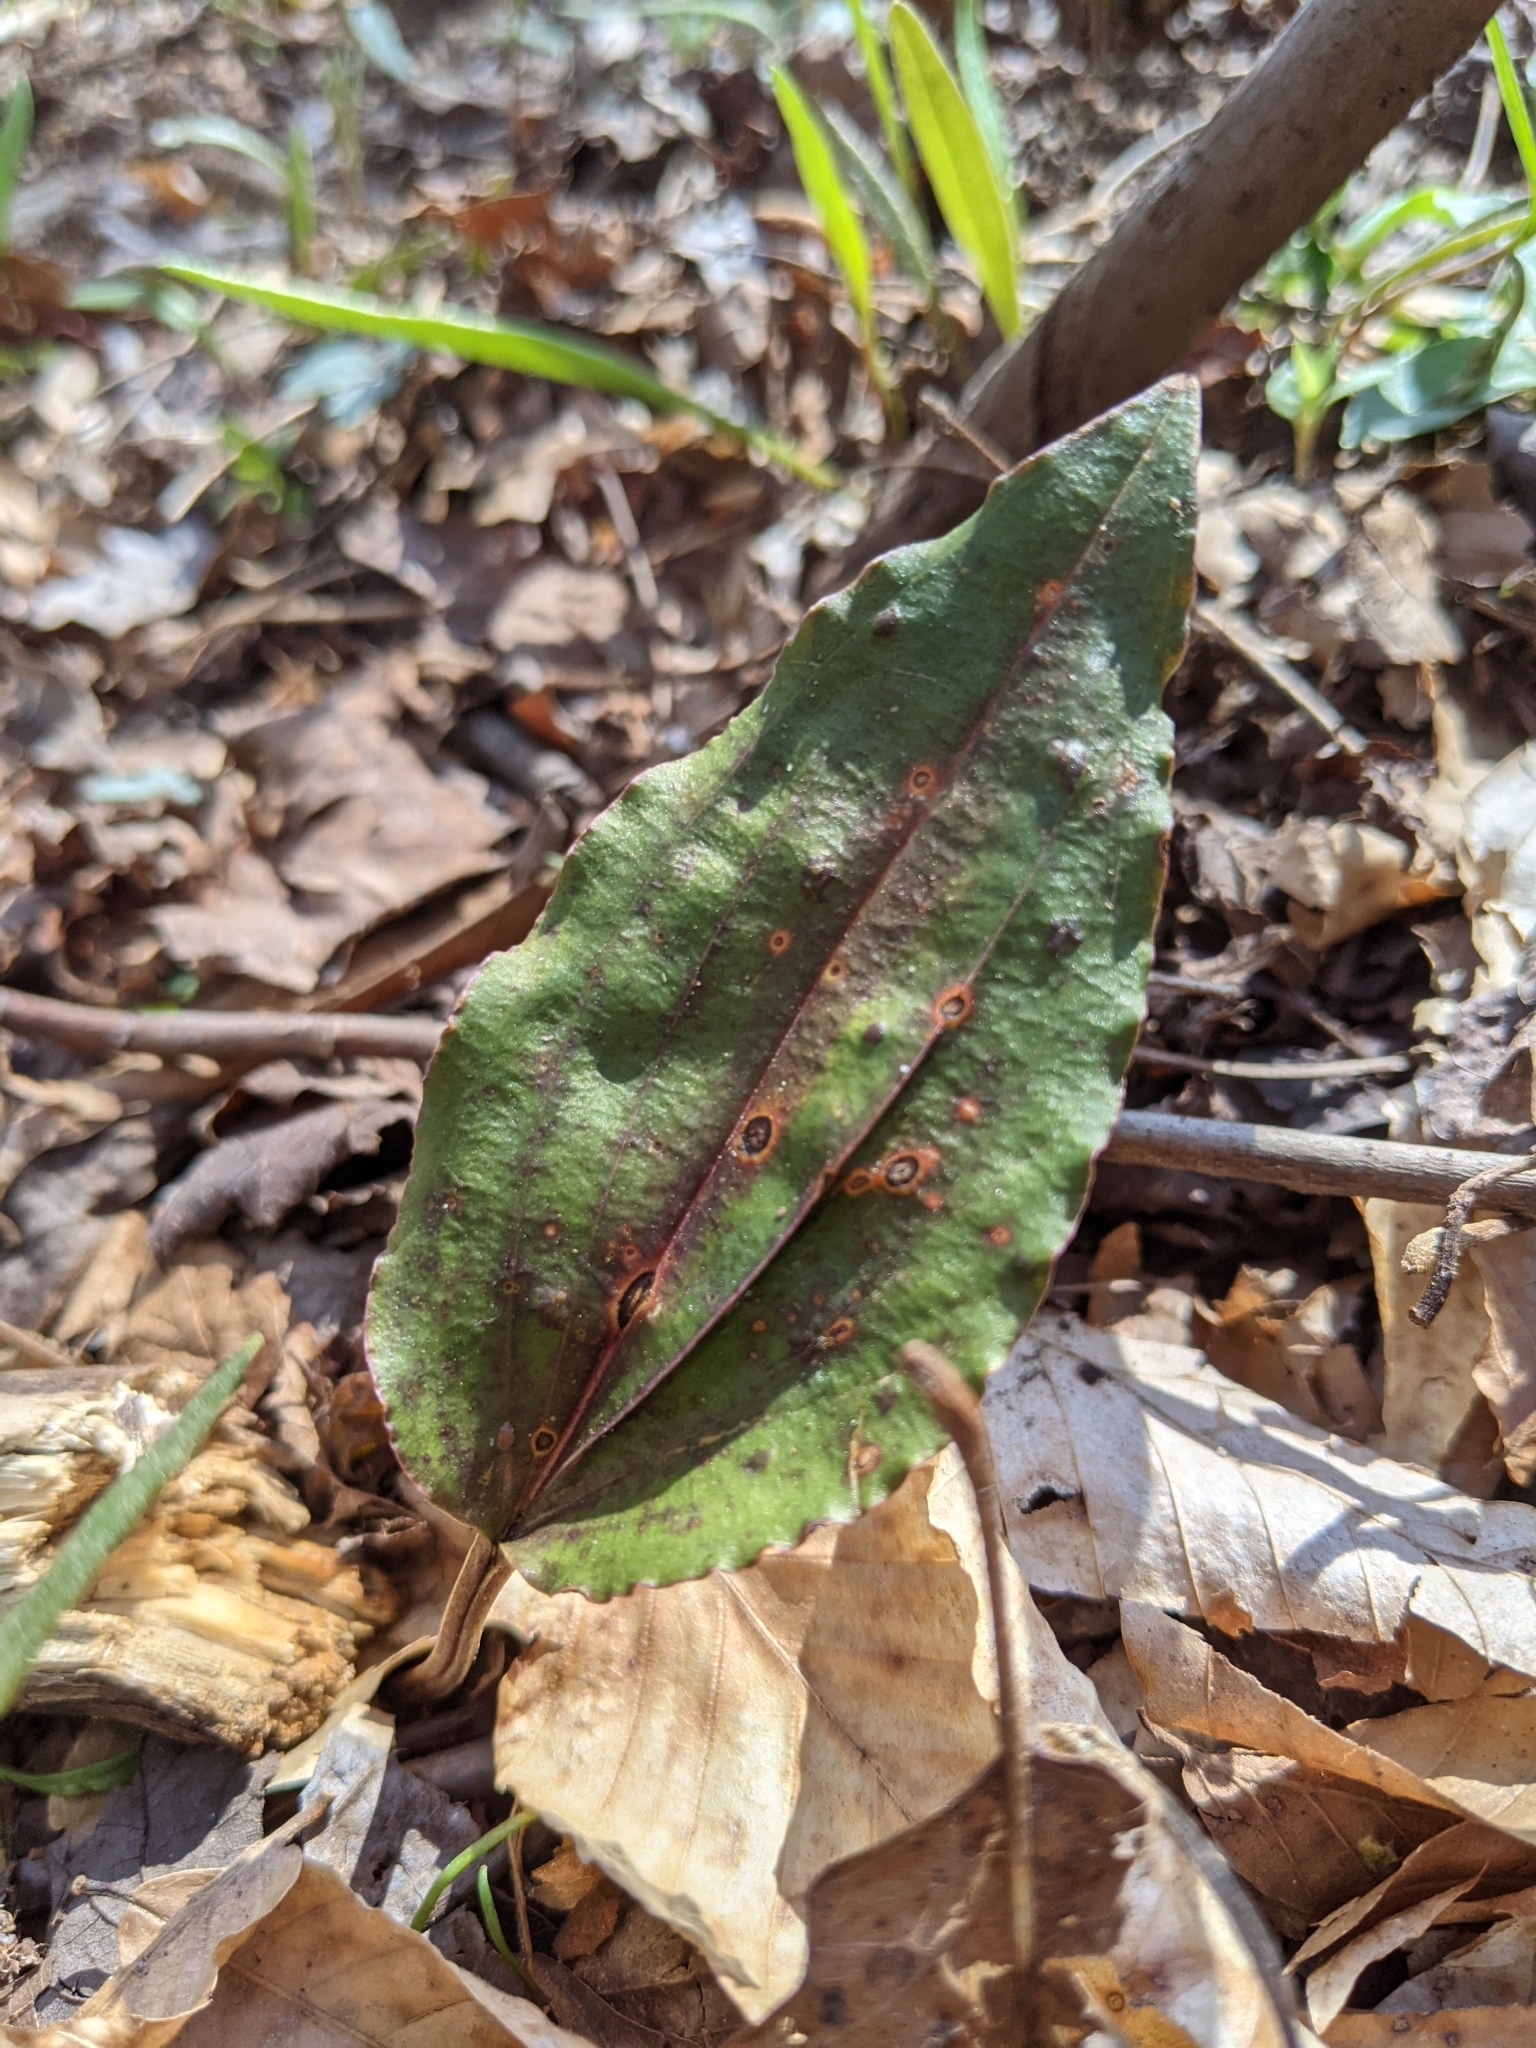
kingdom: Plantae
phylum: Tracheophyta
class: Liliopsida
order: Asparagales
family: Orchidaceae
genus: Tipularia
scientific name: Tipularia discolor
